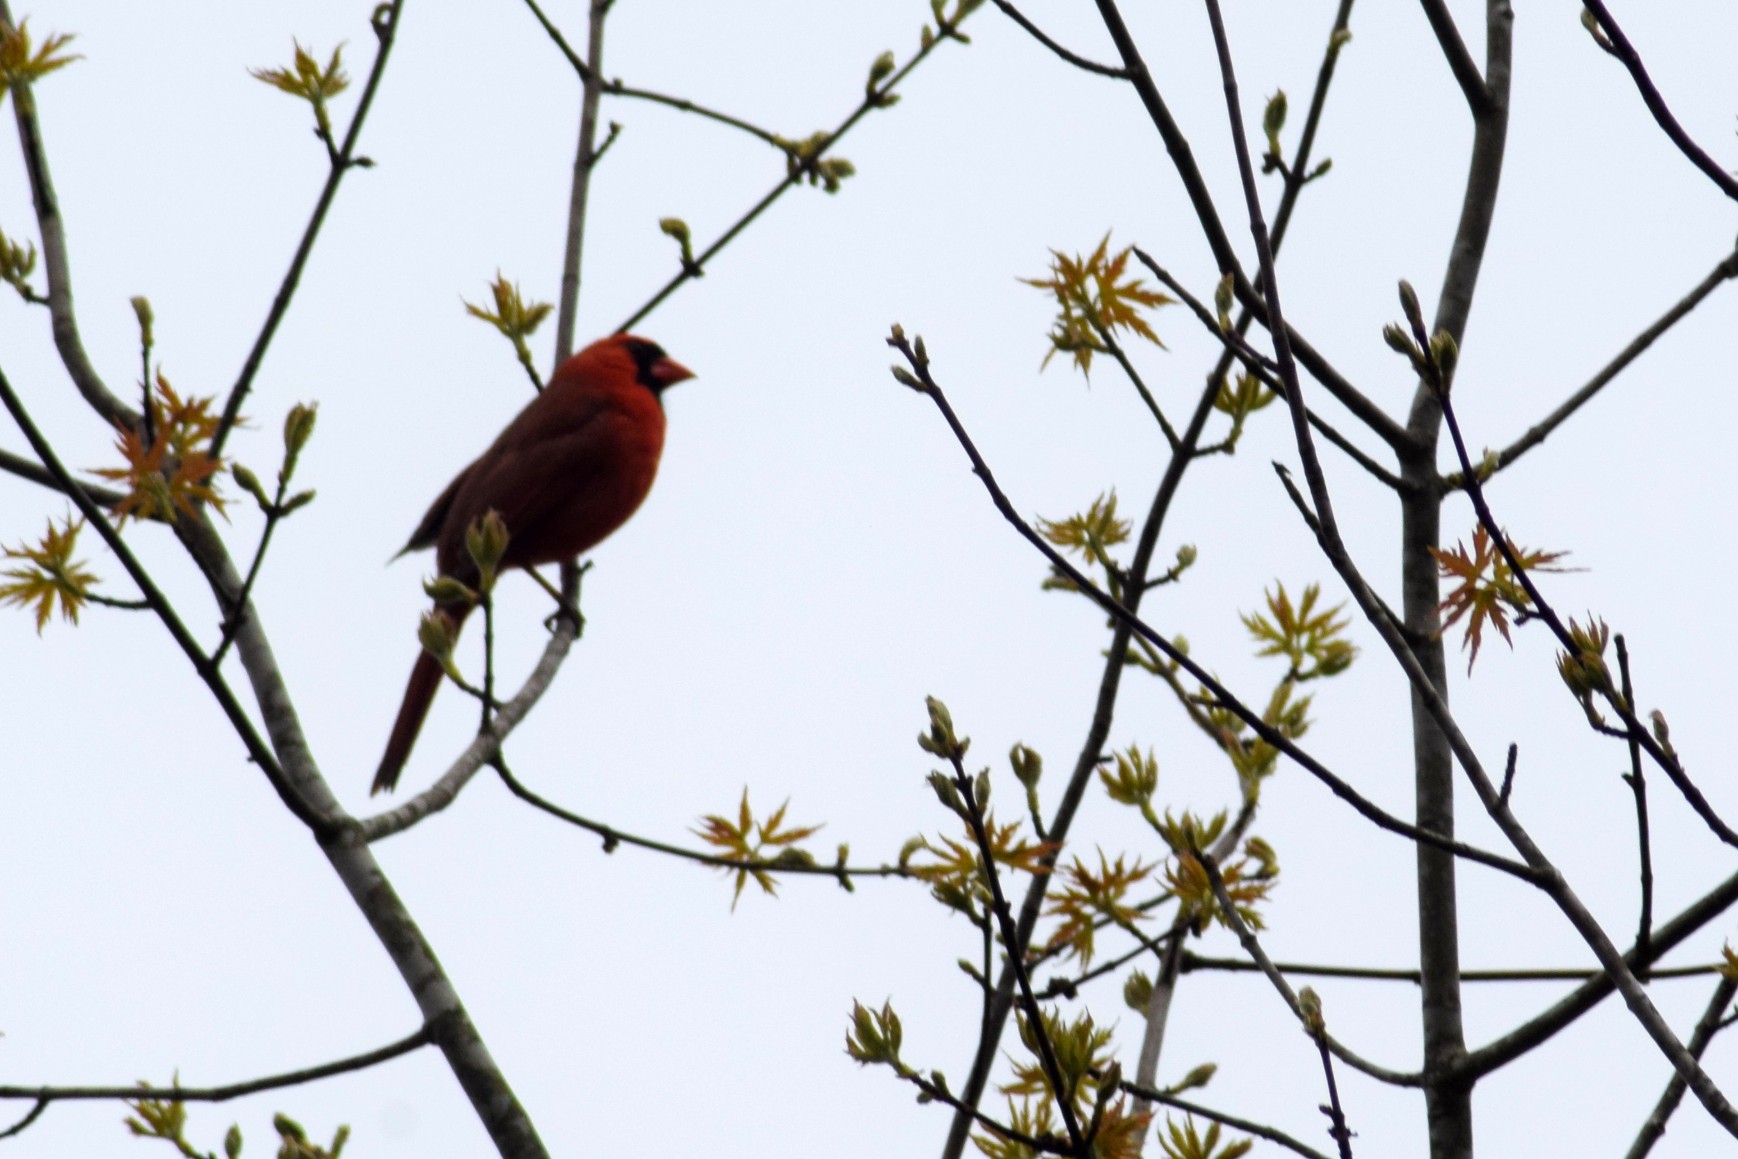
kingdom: Animalia
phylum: Chordata
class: Aves
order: Passeriformes
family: Cardinalidae
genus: Cardinalis
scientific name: Cardinalis cardinalis
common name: Northern cardinal
